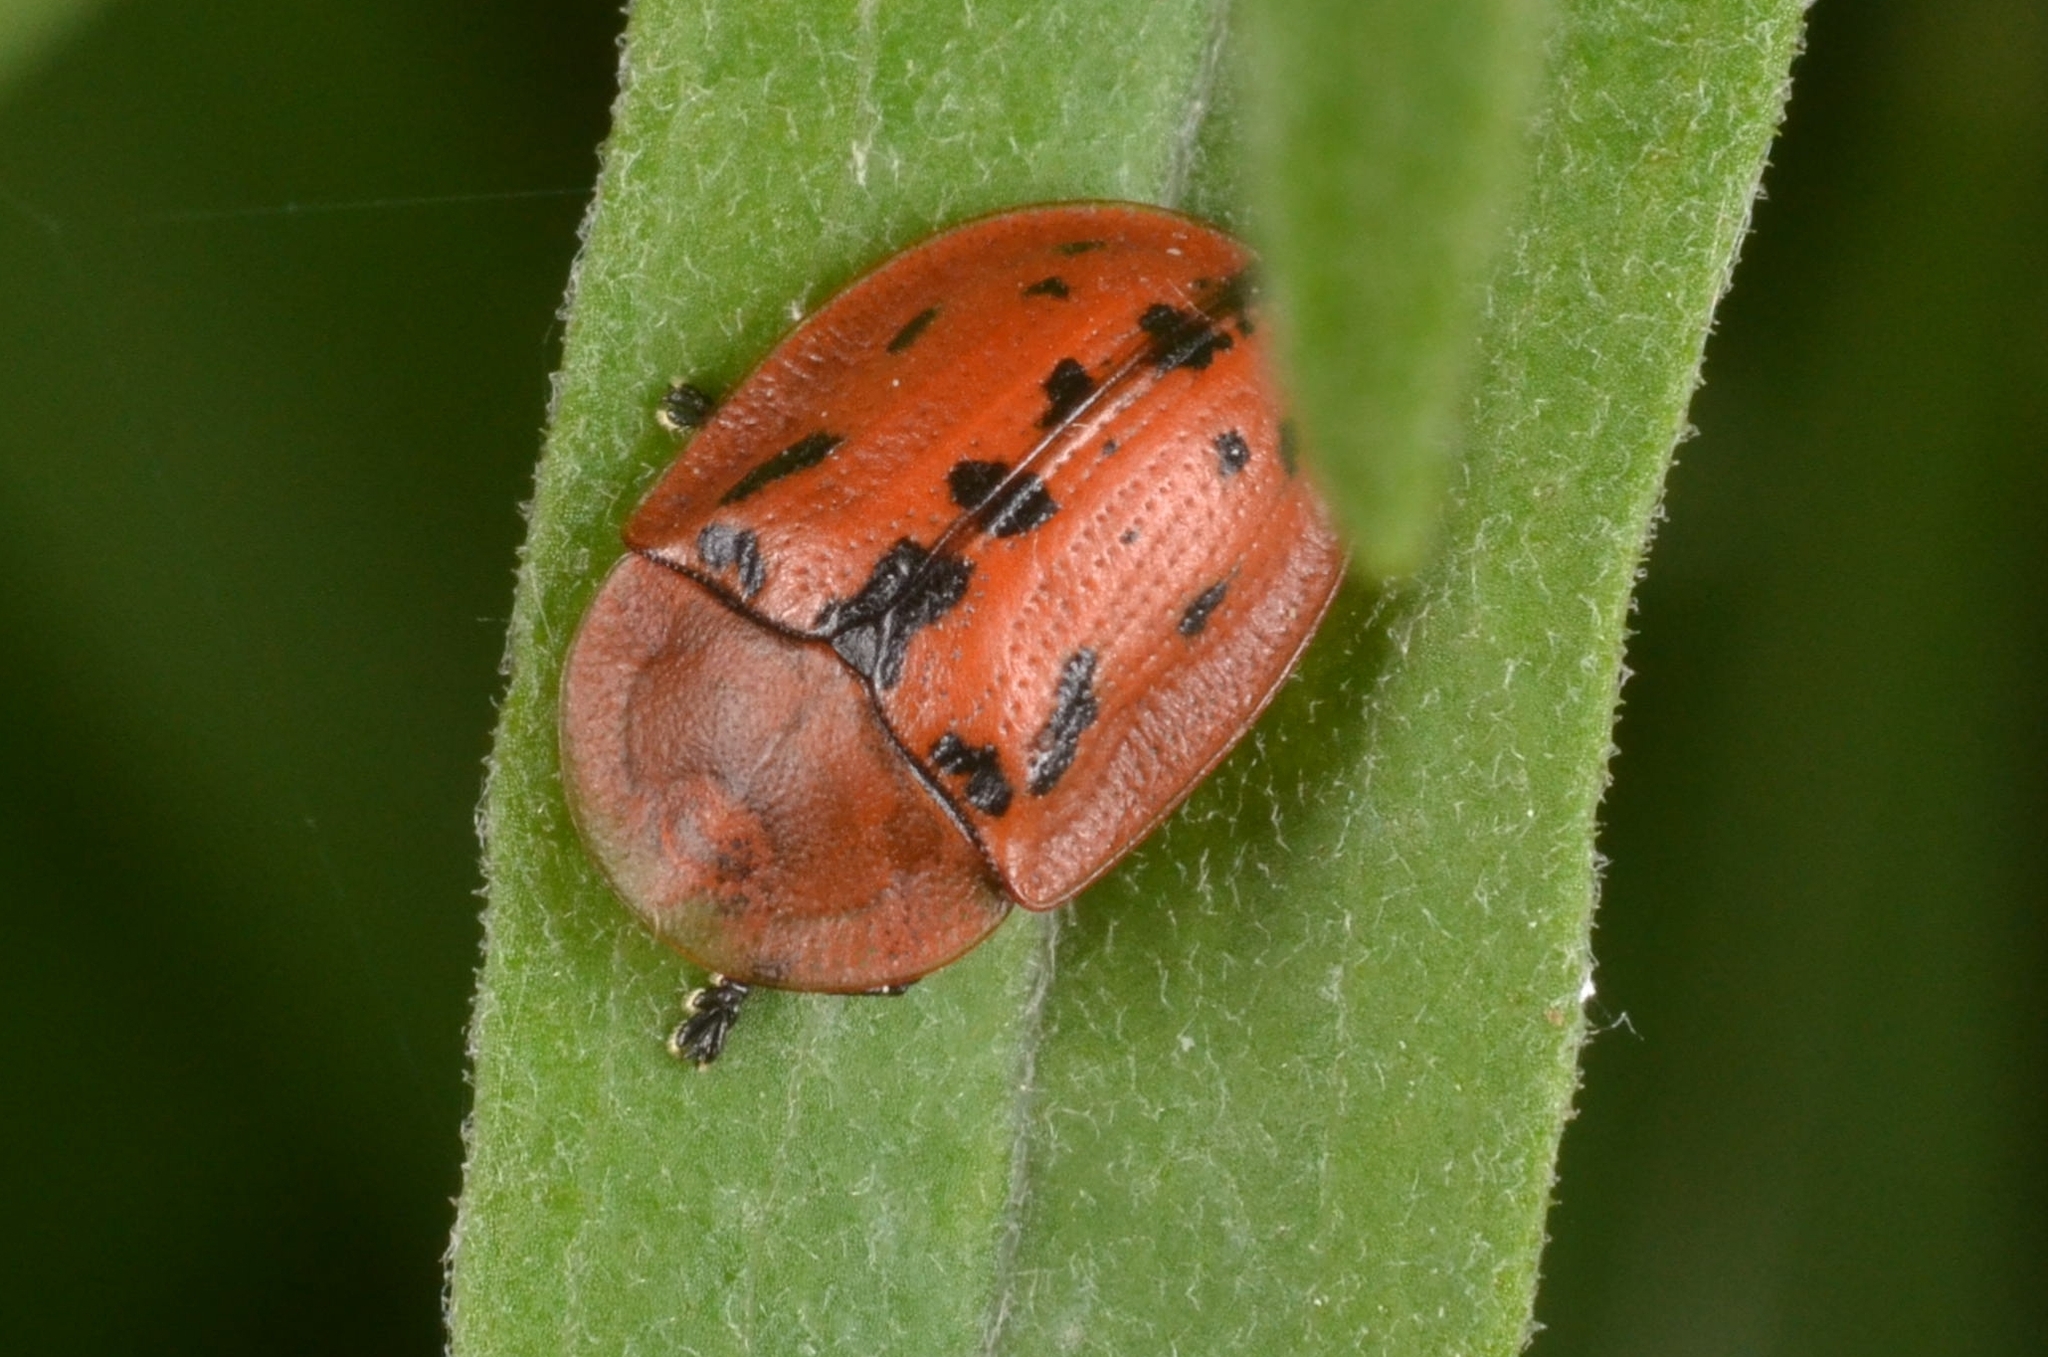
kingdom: Animalia
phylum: Arthropoda
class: Insecta
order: Coleoptera
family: Chrysomelidae
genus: Cassida
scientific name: Cassida murraea
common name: Fleabane tortoise beetle
